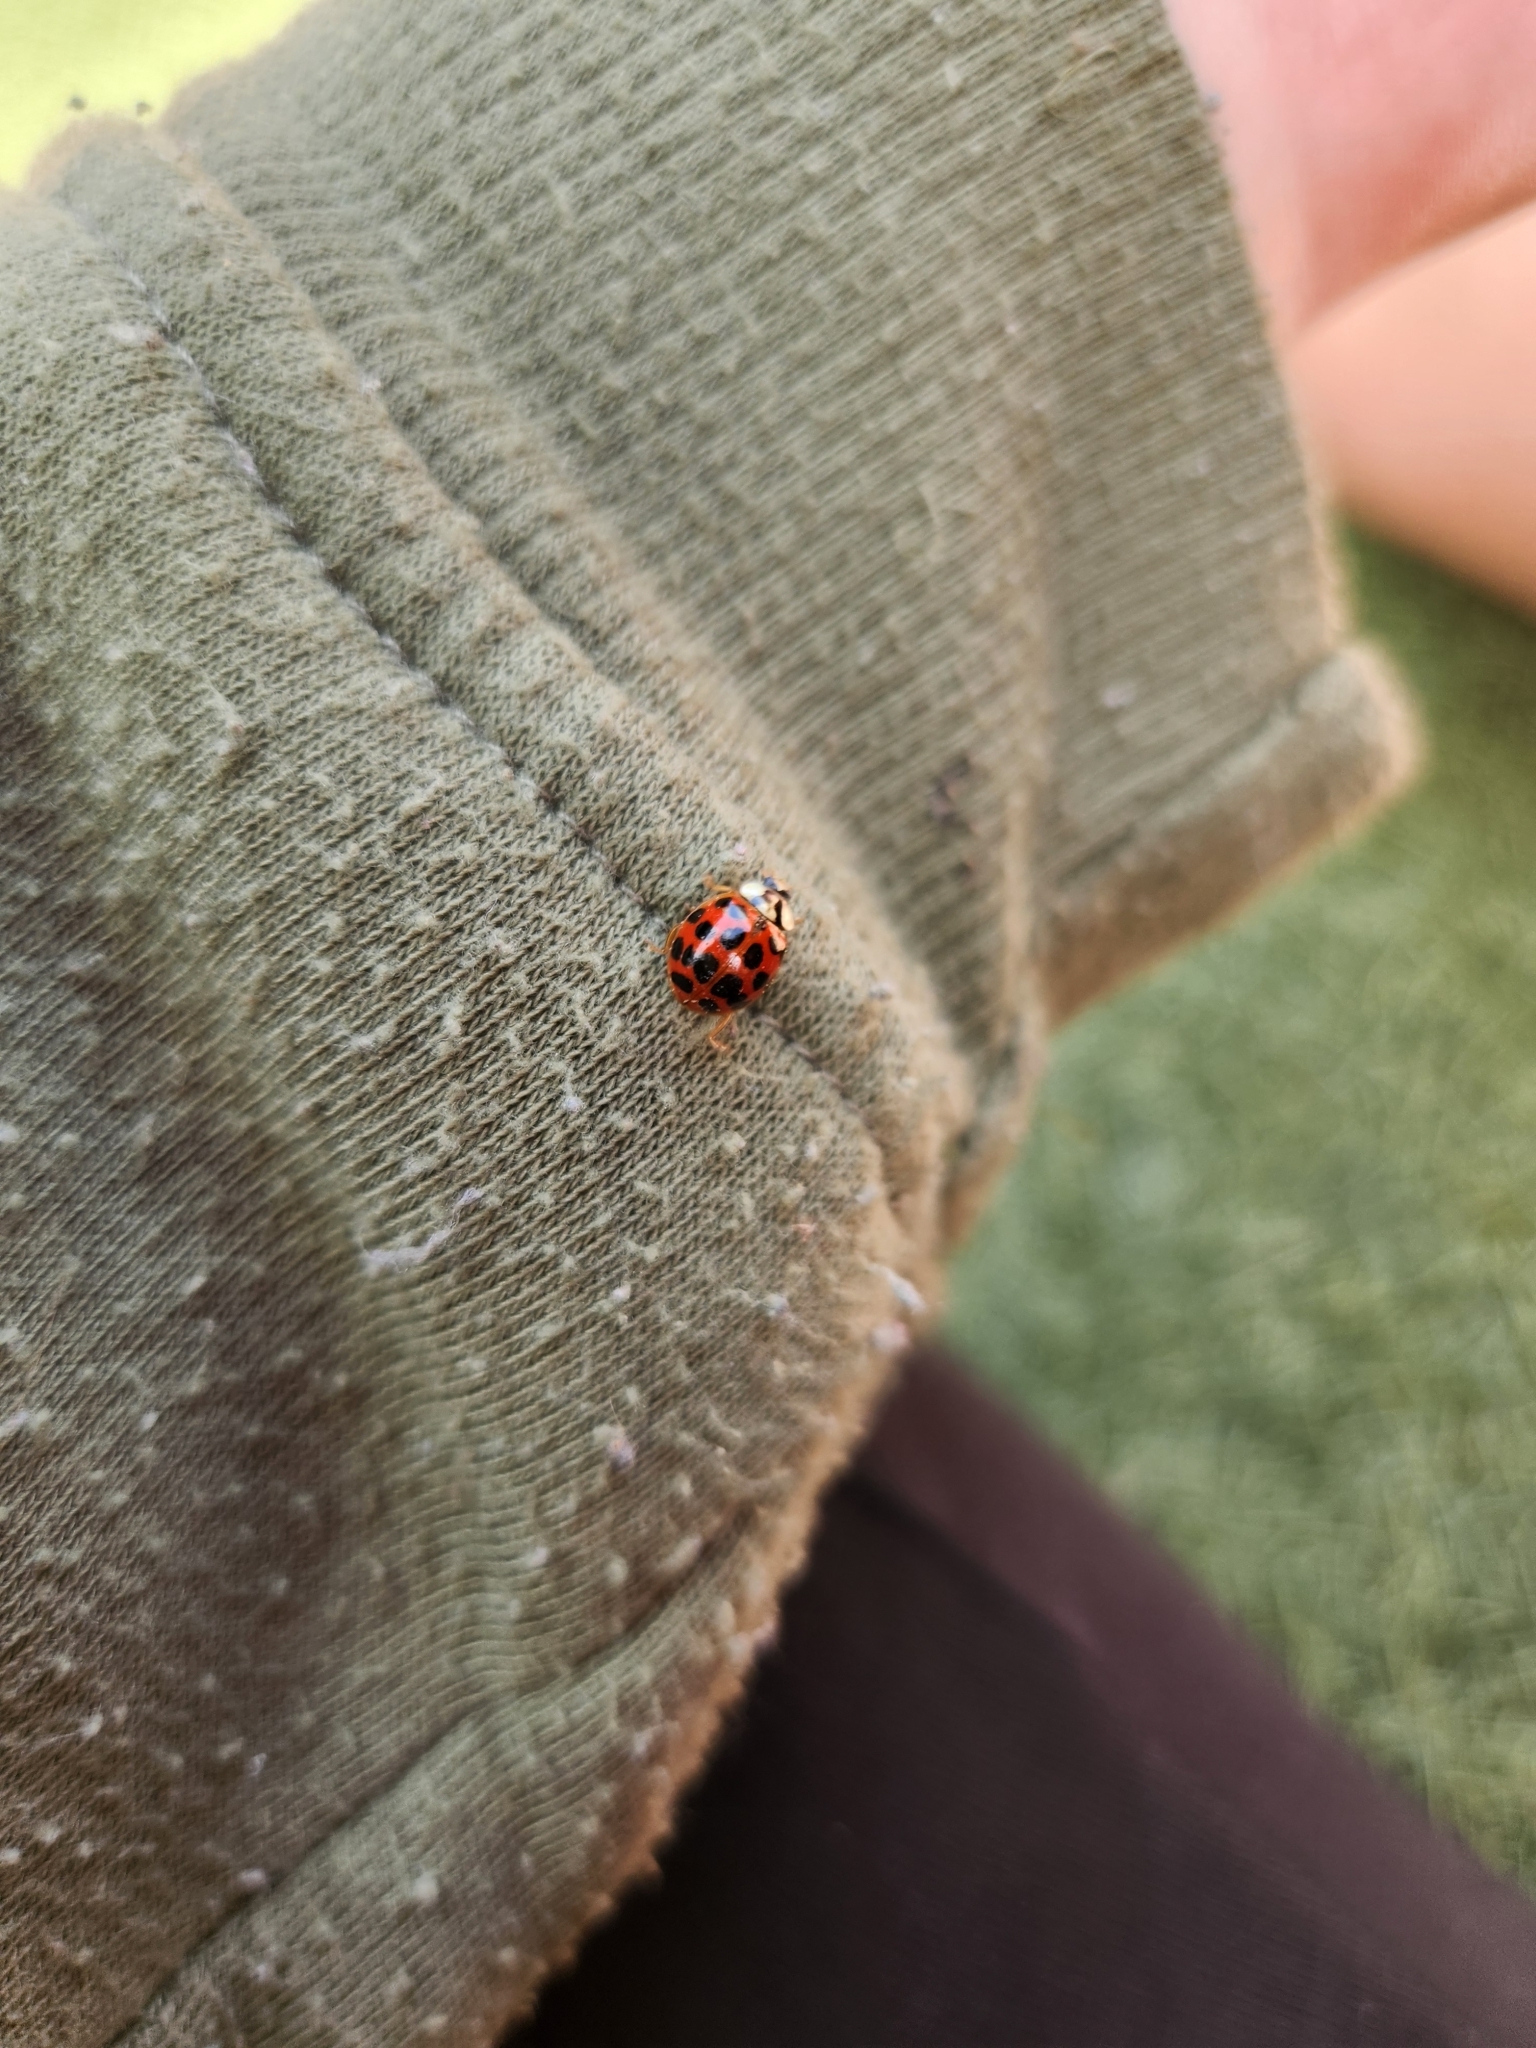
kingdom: Animalia
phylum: Arthropoda
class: Insecta
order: Coleoptera
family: Coccinellidae
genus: Harmonia
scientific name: Harmonia axyridis
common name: Harlequin ladybird
